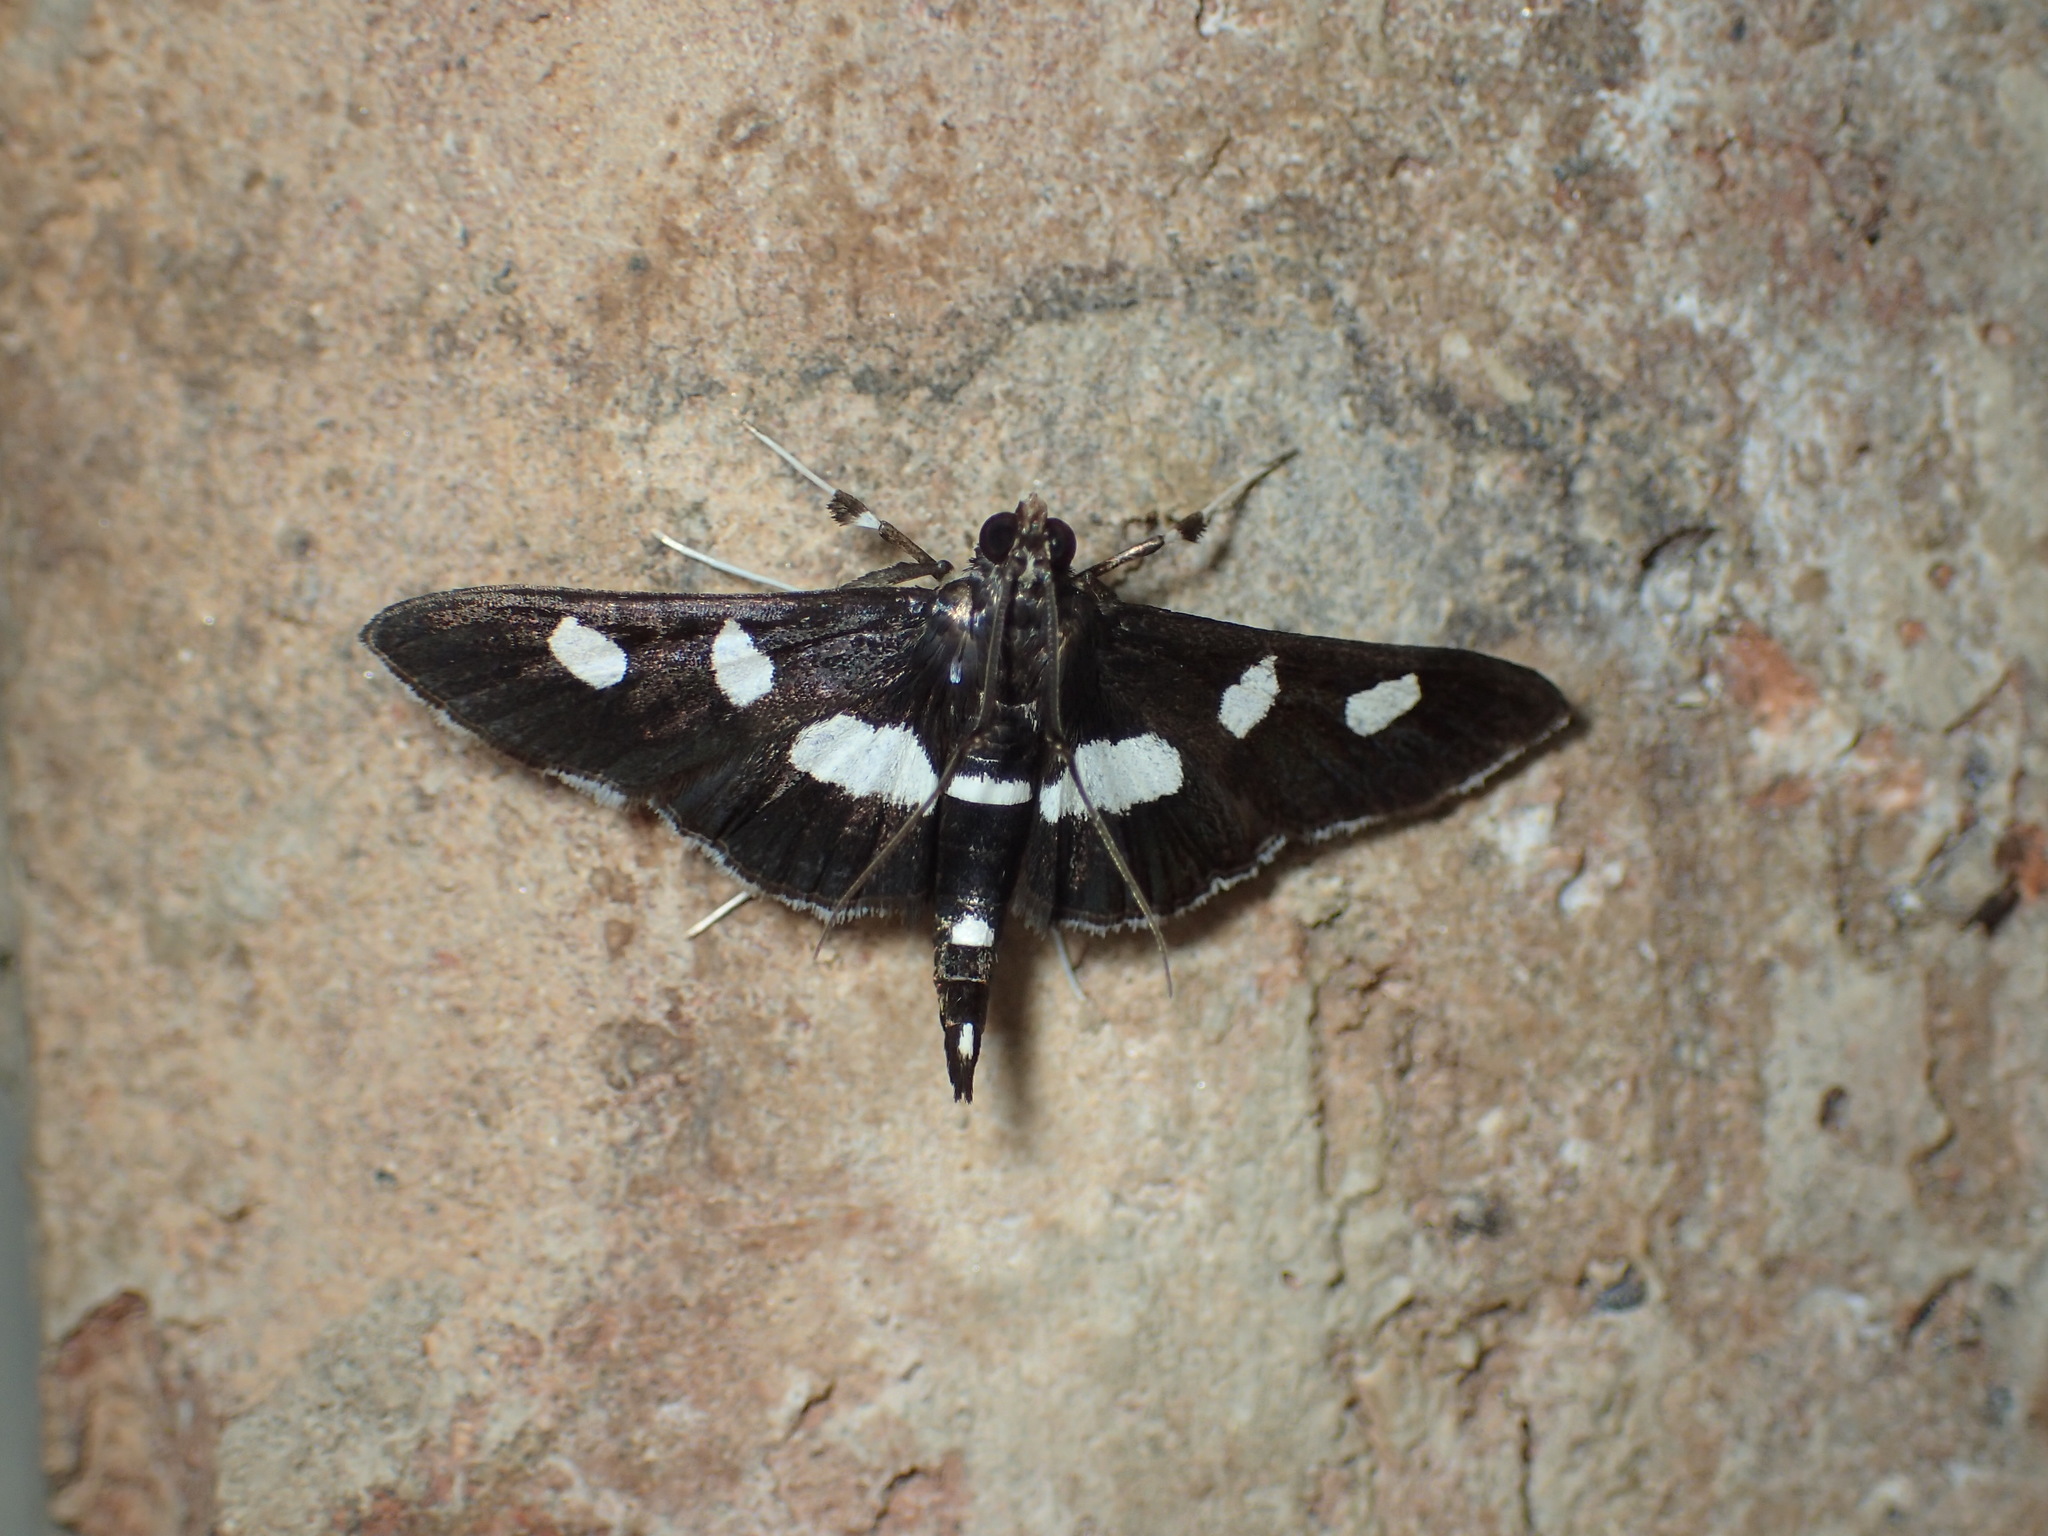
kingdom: Animalia
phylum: Arthropoda
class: Insecta
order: Lepidoptera
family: Crambidae
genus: Desmia
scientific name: Desmia
